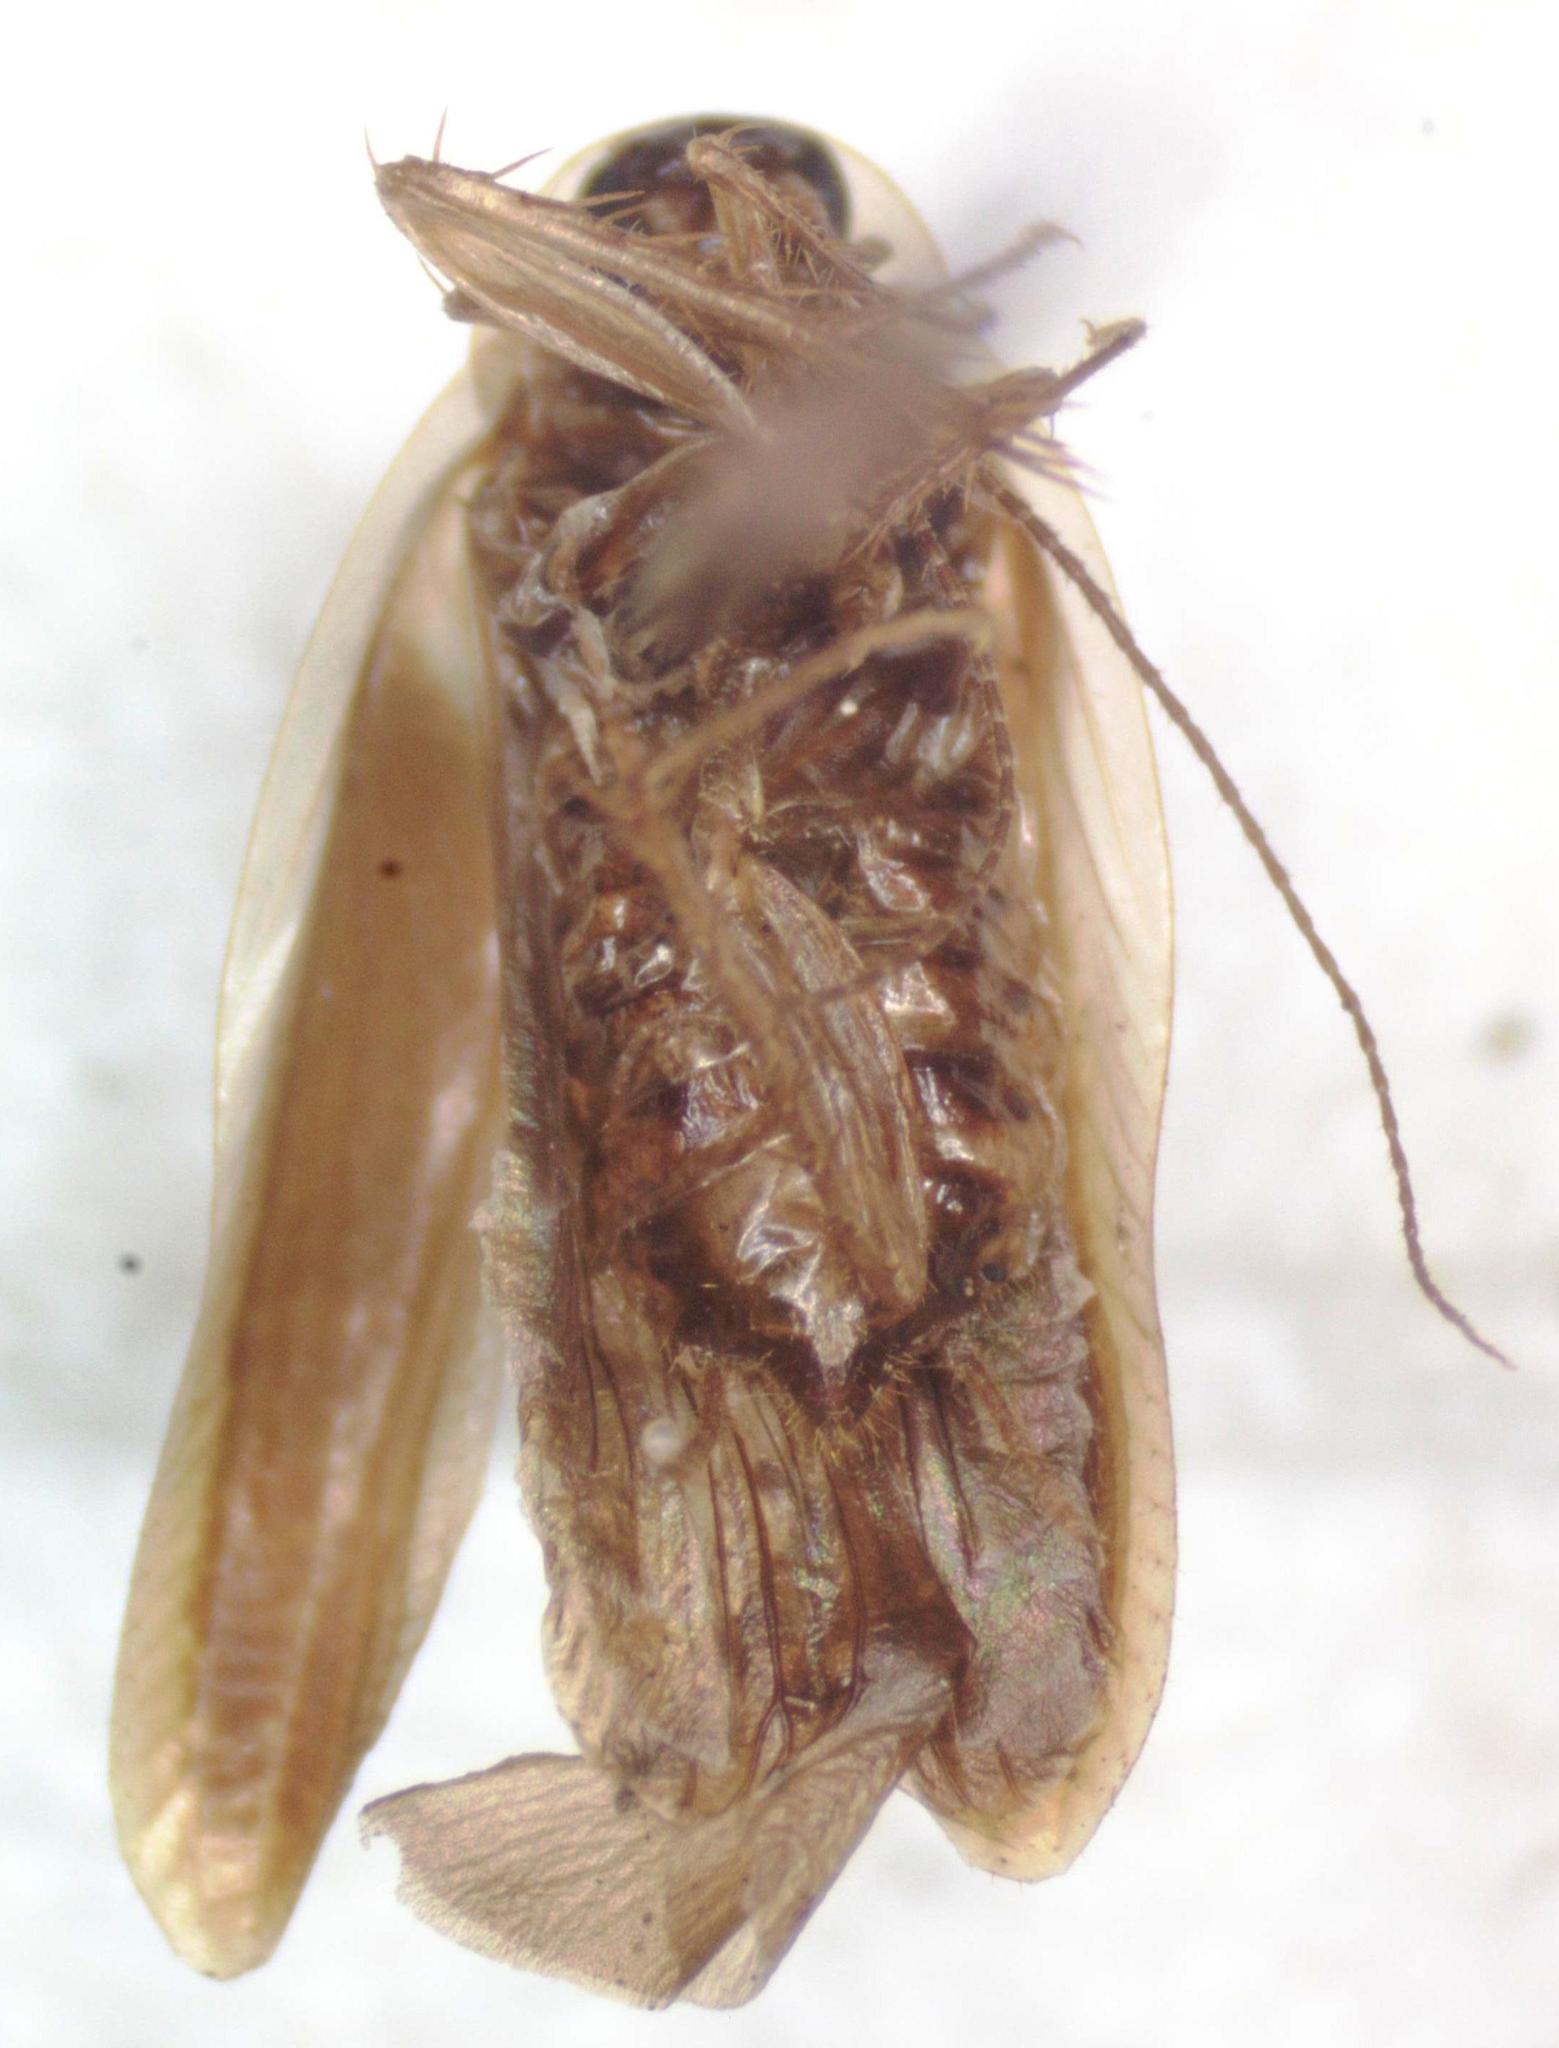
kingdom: Animalia
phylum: Arthropoda
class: Insecta
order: Blattodea
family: Anaplectidae
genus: Anaplecta
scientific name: Anaplecta hemiscotia
